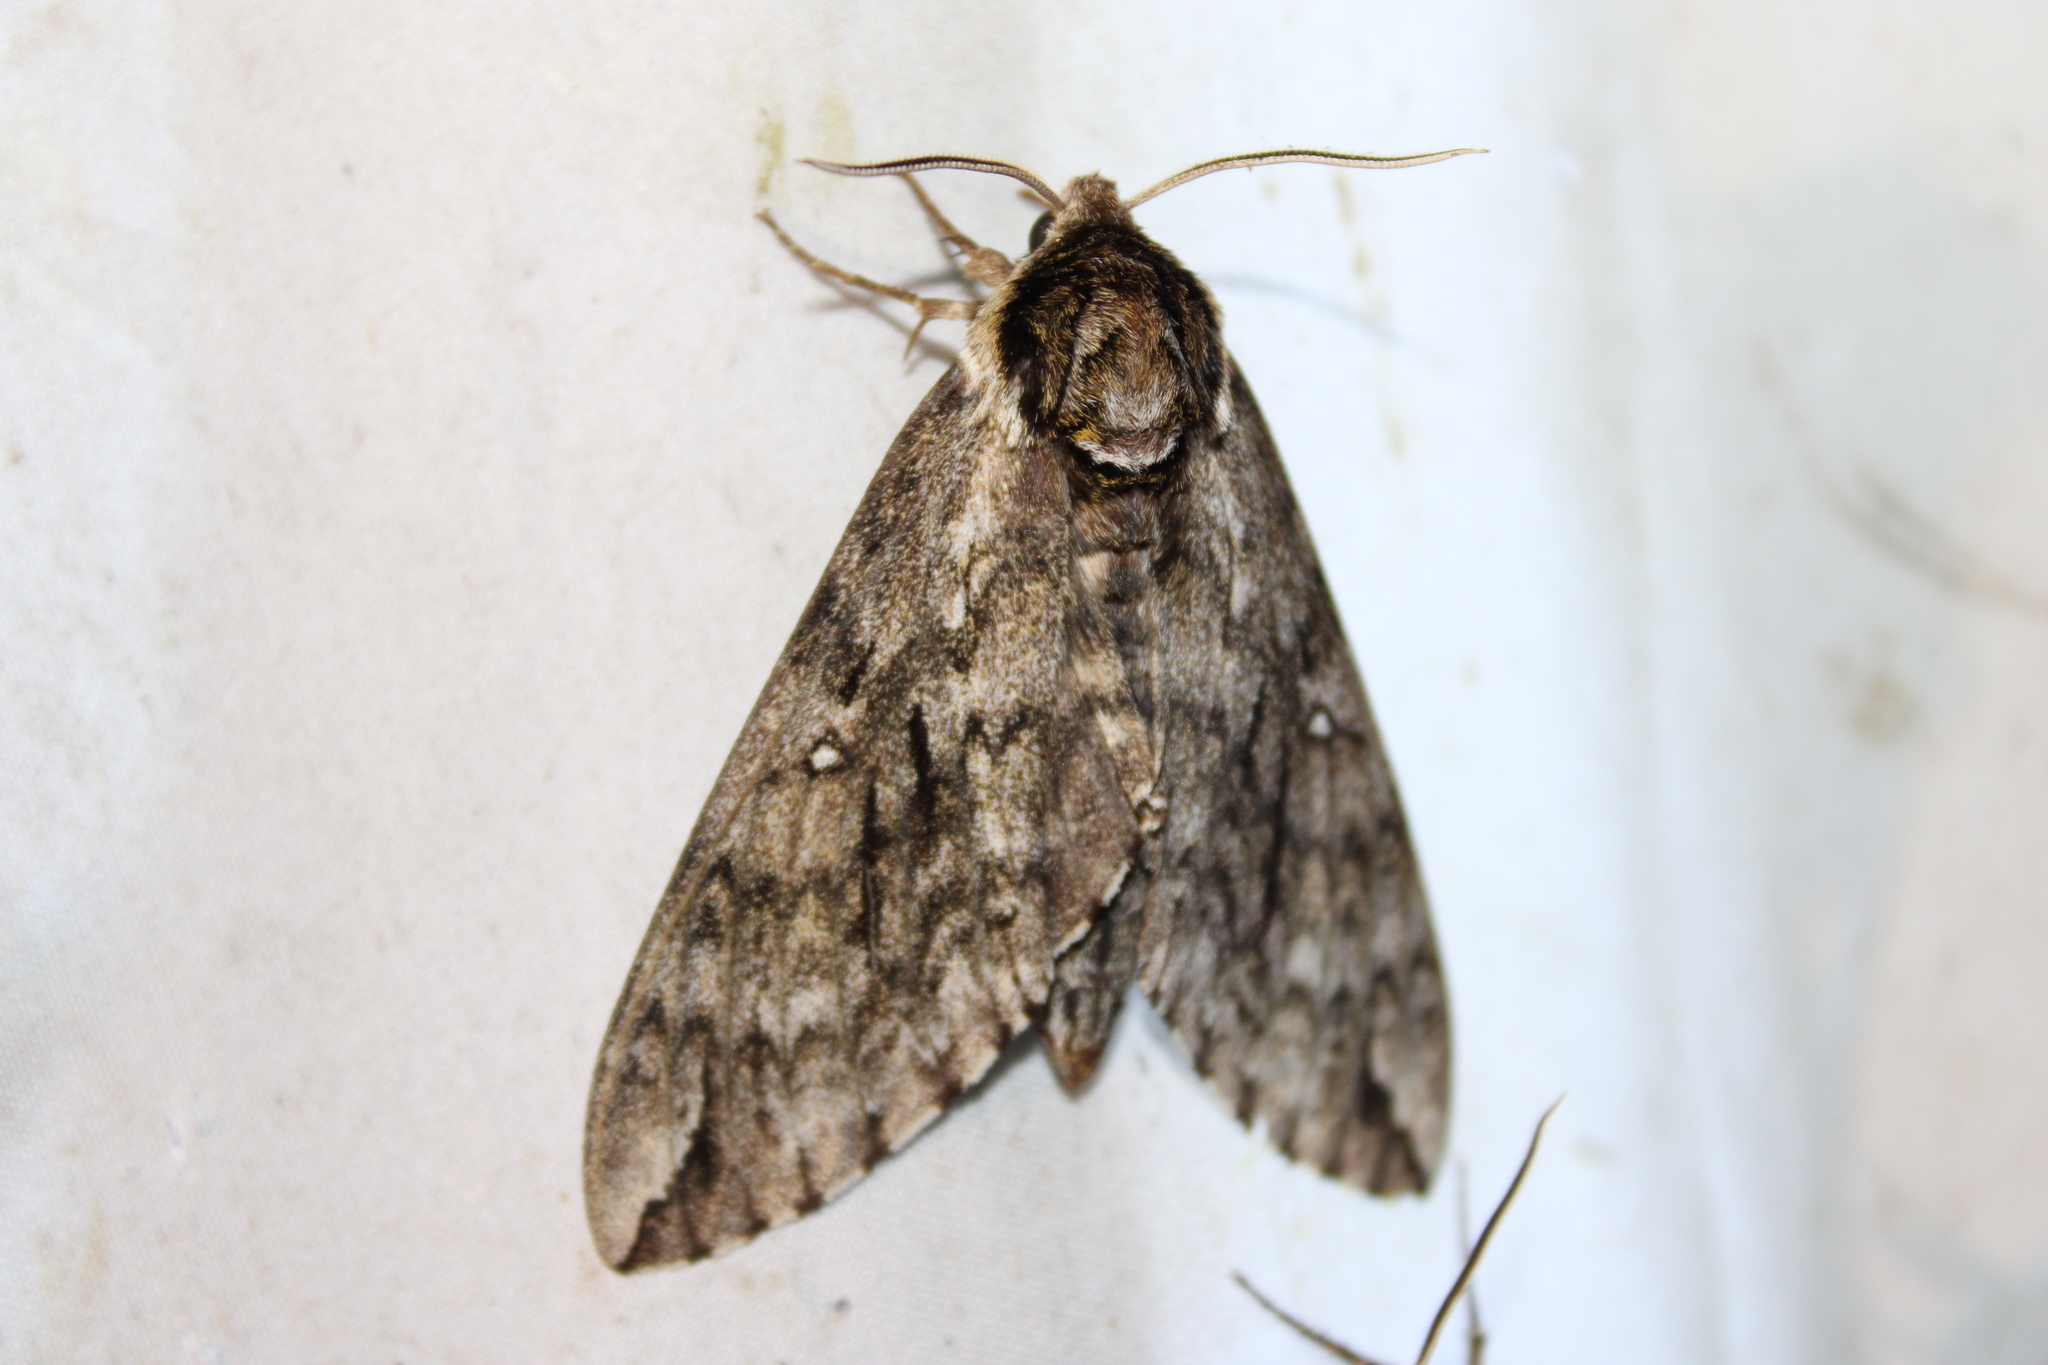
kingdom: Animalia
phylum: Arthropoda
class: Insecta
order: Lepidoptera
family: Sphingidae
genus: Ceratomia
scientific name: Ceratomia undulosa
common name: Waved sphinx
